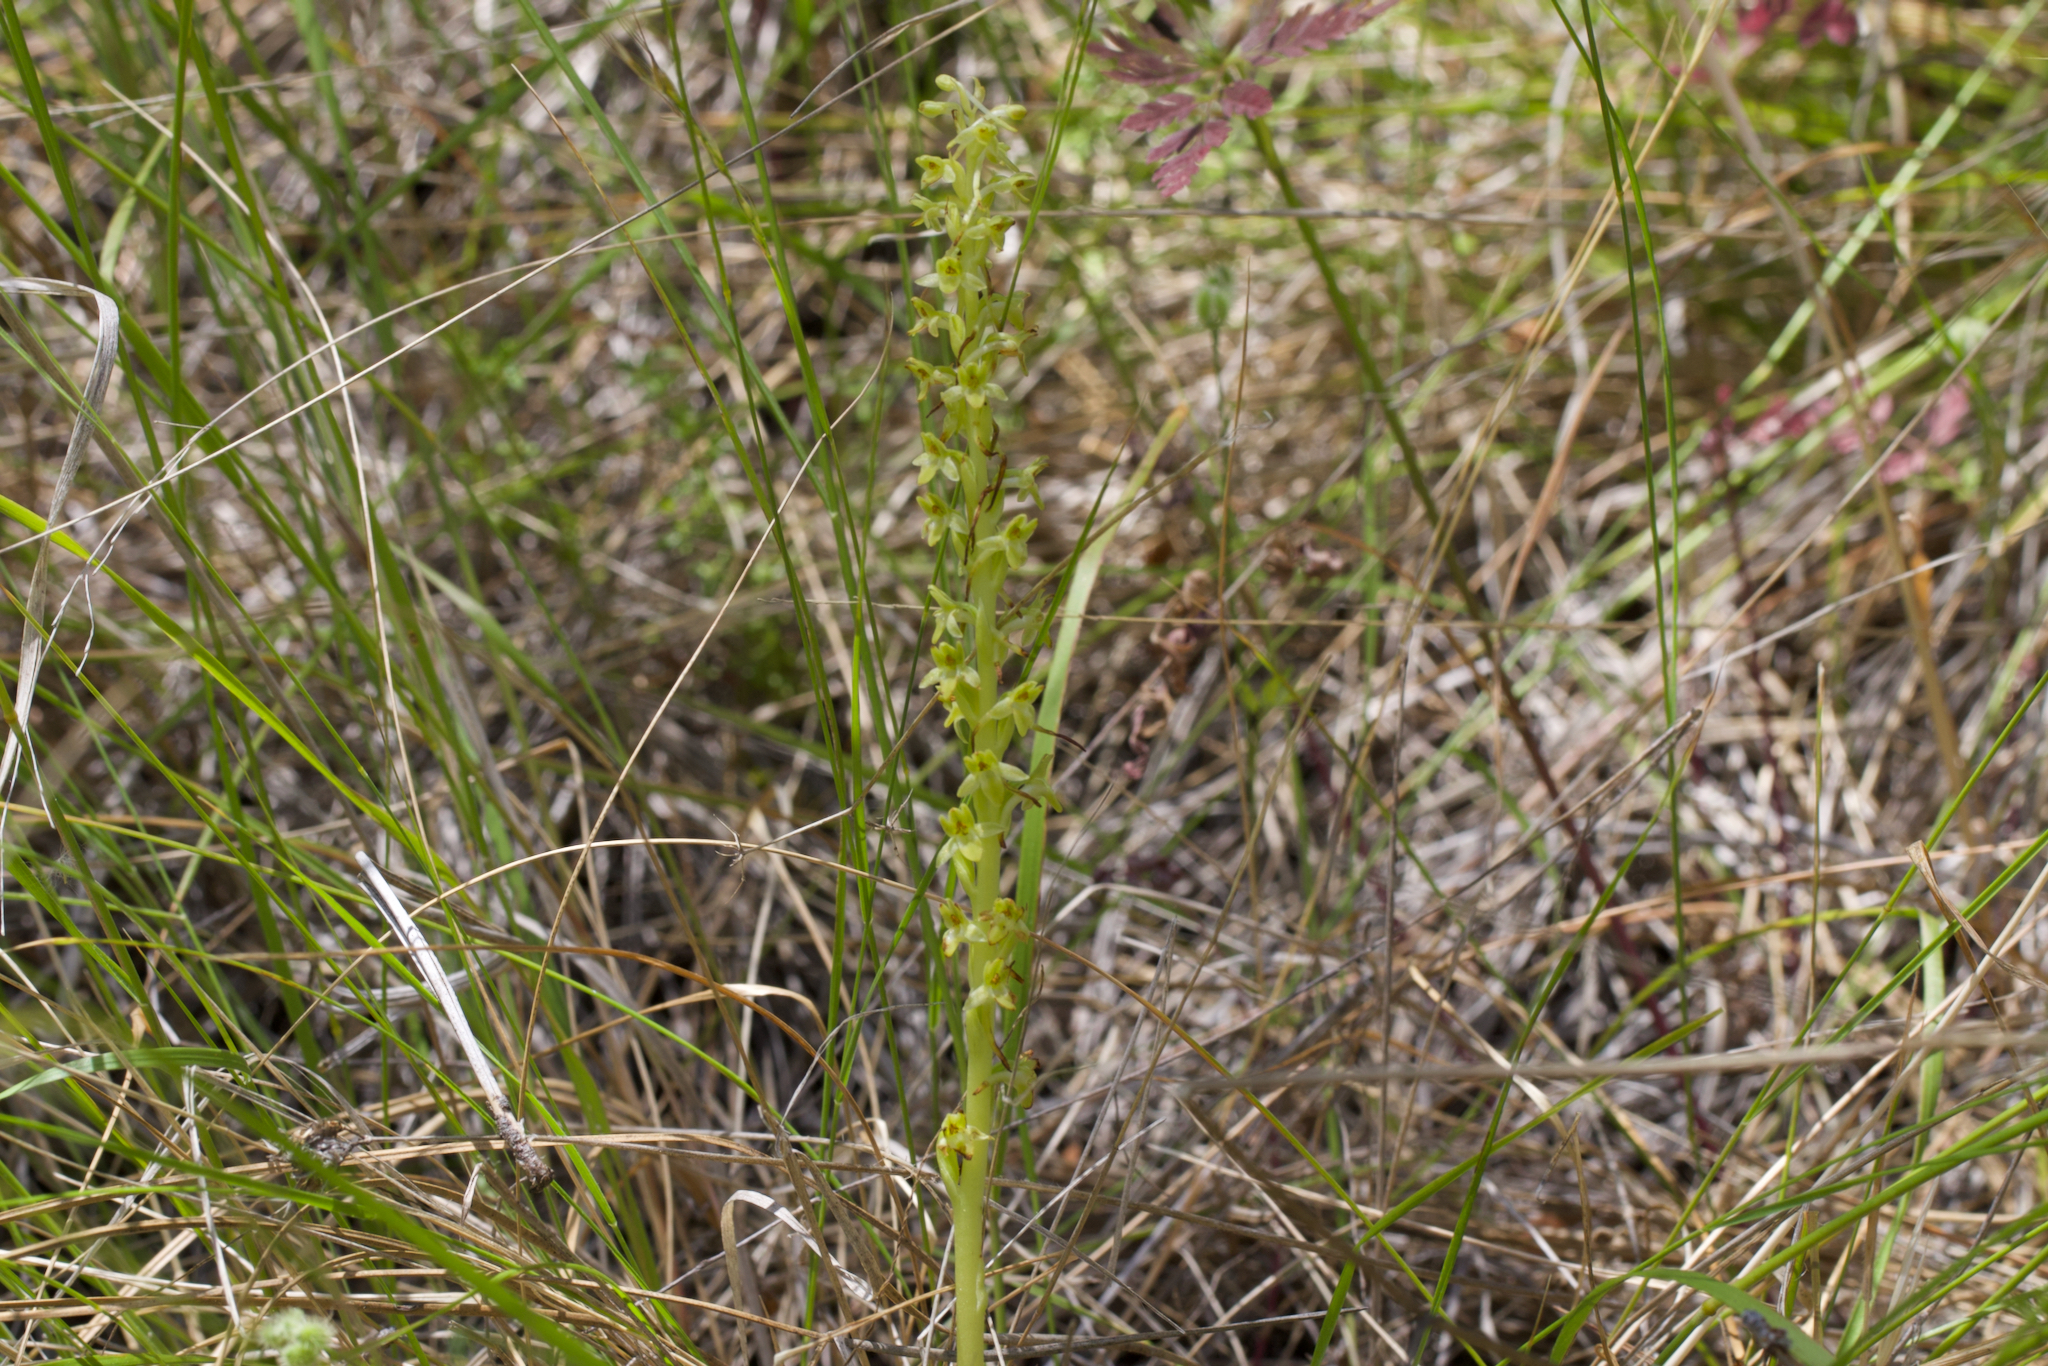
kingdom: Plantae
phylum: Tracheophyta
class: Liliopsida
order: Asparagales
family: Orchidaceae
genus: Platanthera
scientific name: Platanthera michaelii
